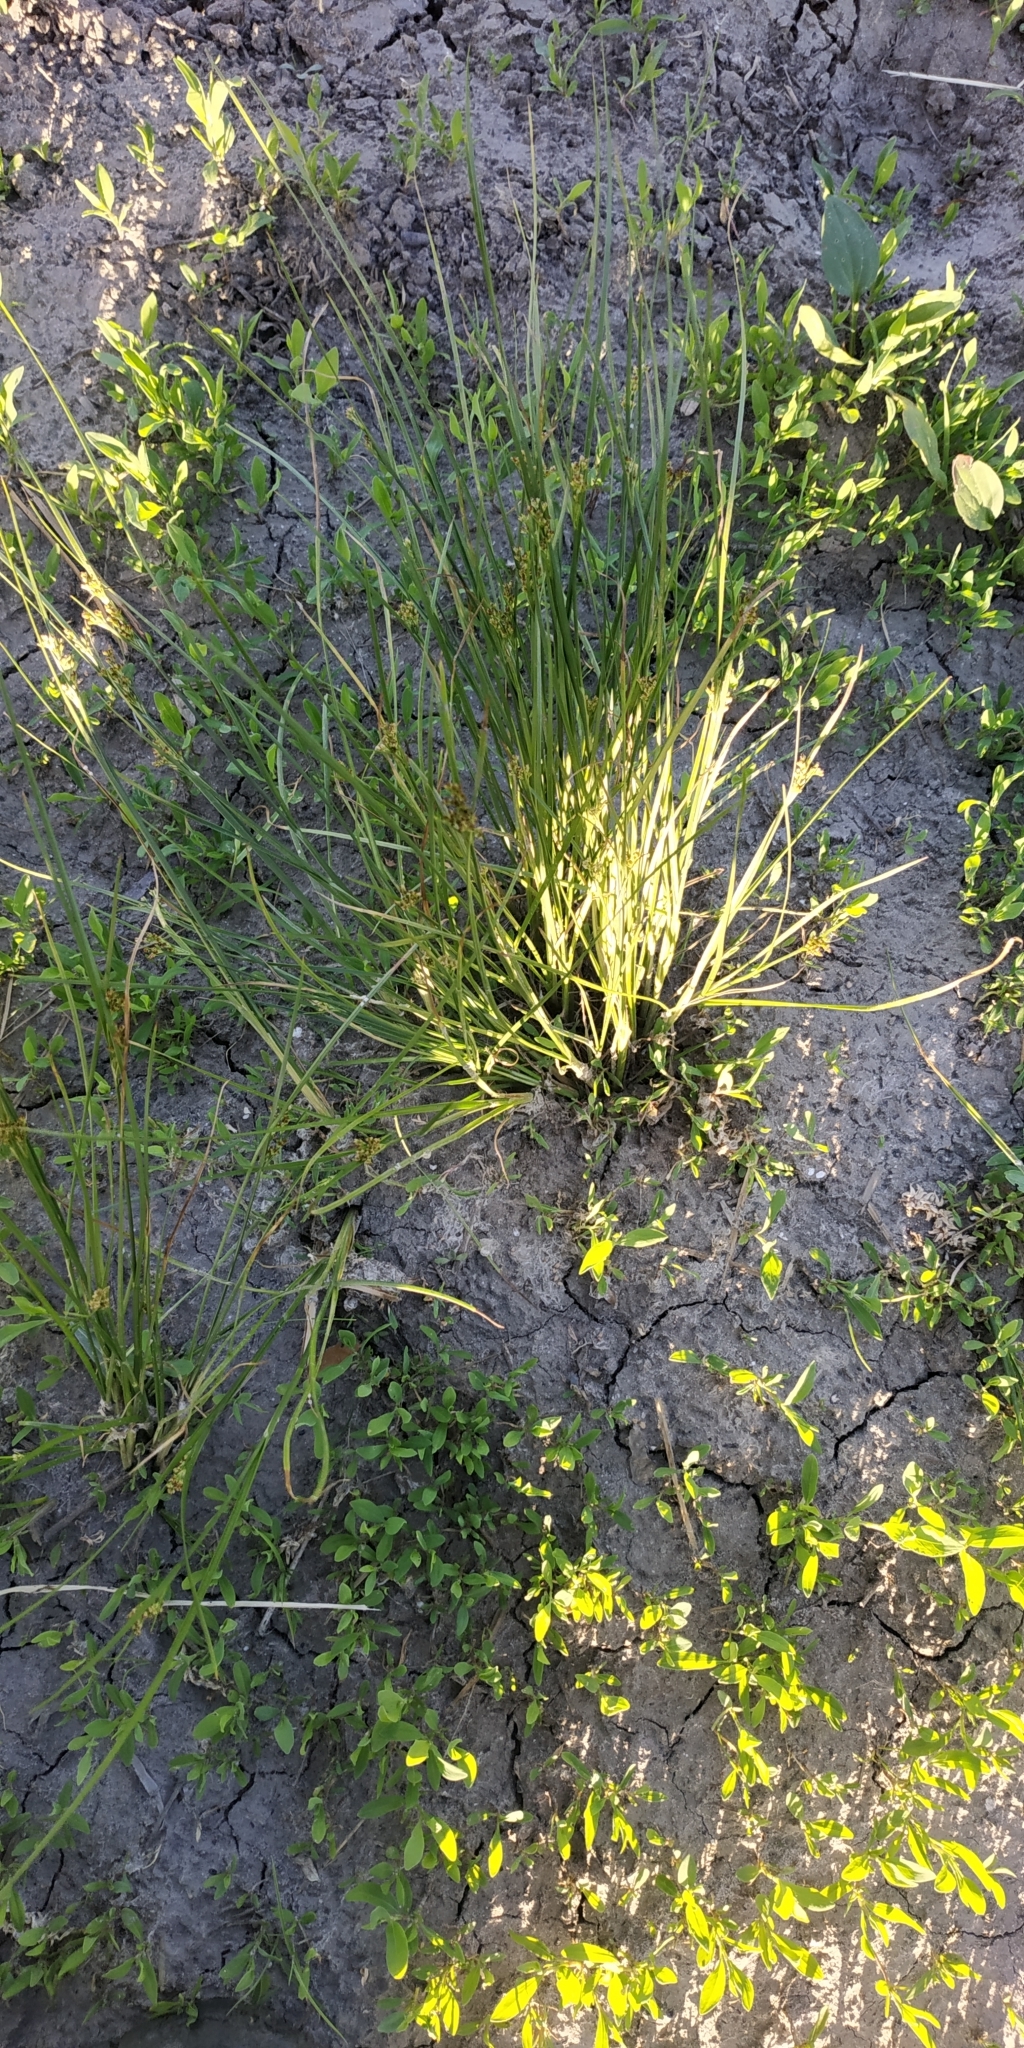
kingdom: Plantae
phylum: Tracheophyta
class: Liliopsida
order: Poales
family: Juncaceae
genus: Juncus
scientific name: Juncus compressus
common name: Round-fruited rush
